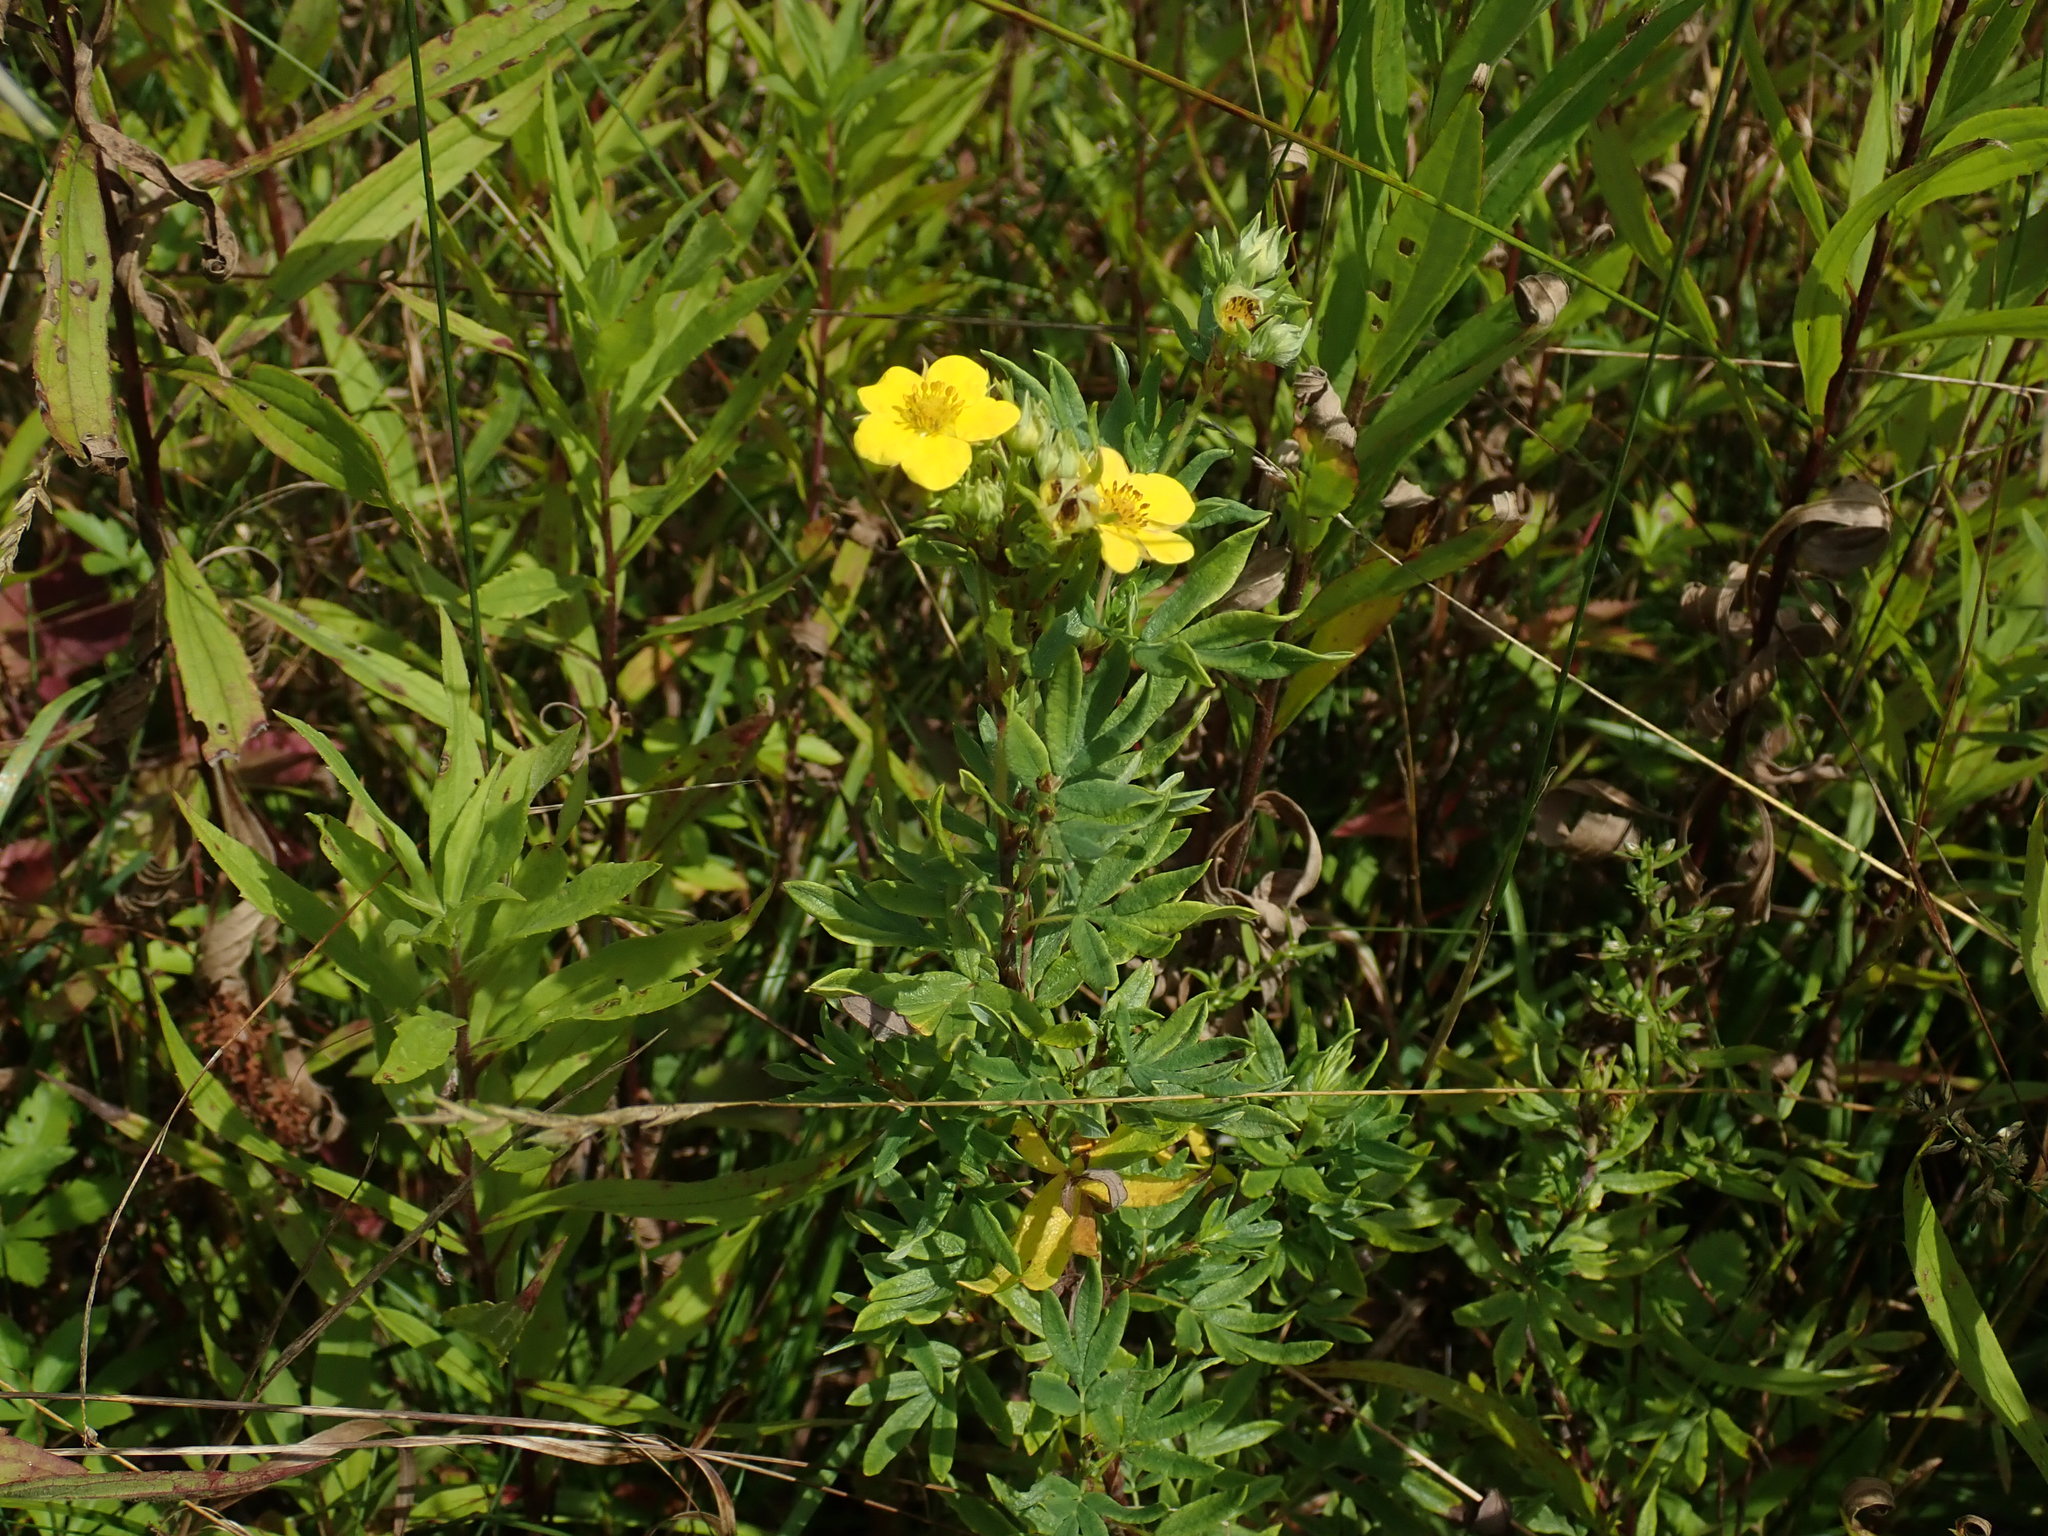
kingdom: Plantae
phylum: Tracheophyta
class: Magnoliopsida
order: Rosales
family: Rosaceae
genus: Dasiphora
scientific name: Dasiphora fruticosa
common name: Shrubby cinquefoil
